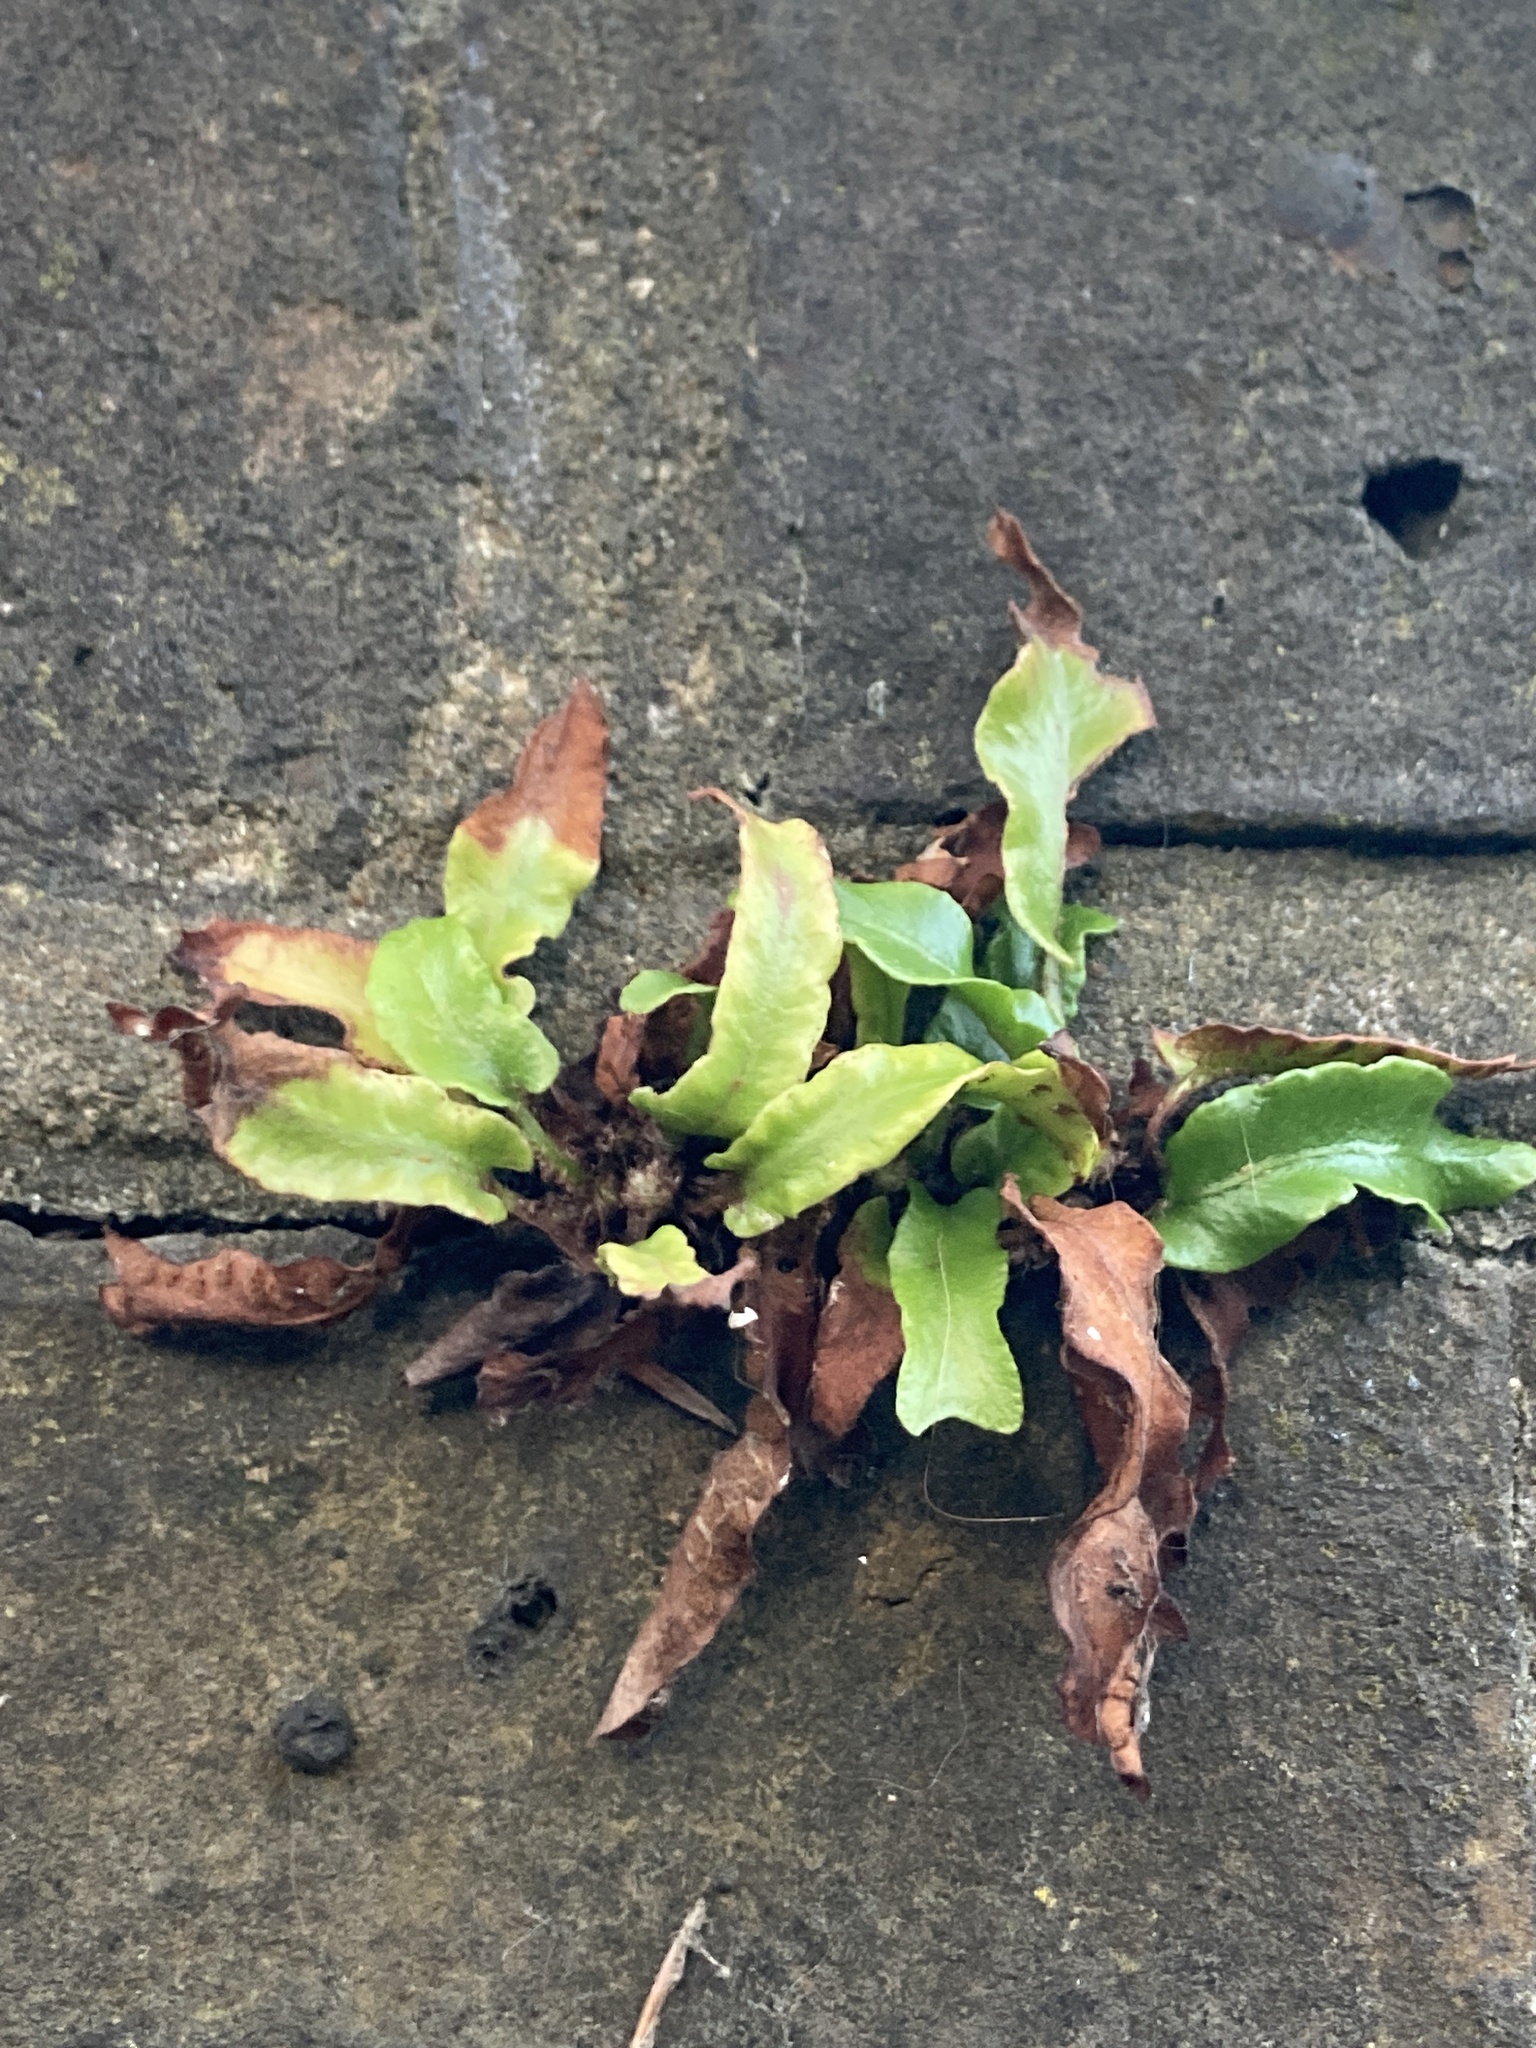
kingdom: Plantae
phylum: Tracheophyta
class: Polypodiopsida
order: Polypodiales
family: Aspleniaceae
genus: Asplenium
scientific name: Asplenium scolopendrium
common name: Hart's-tongue fern
